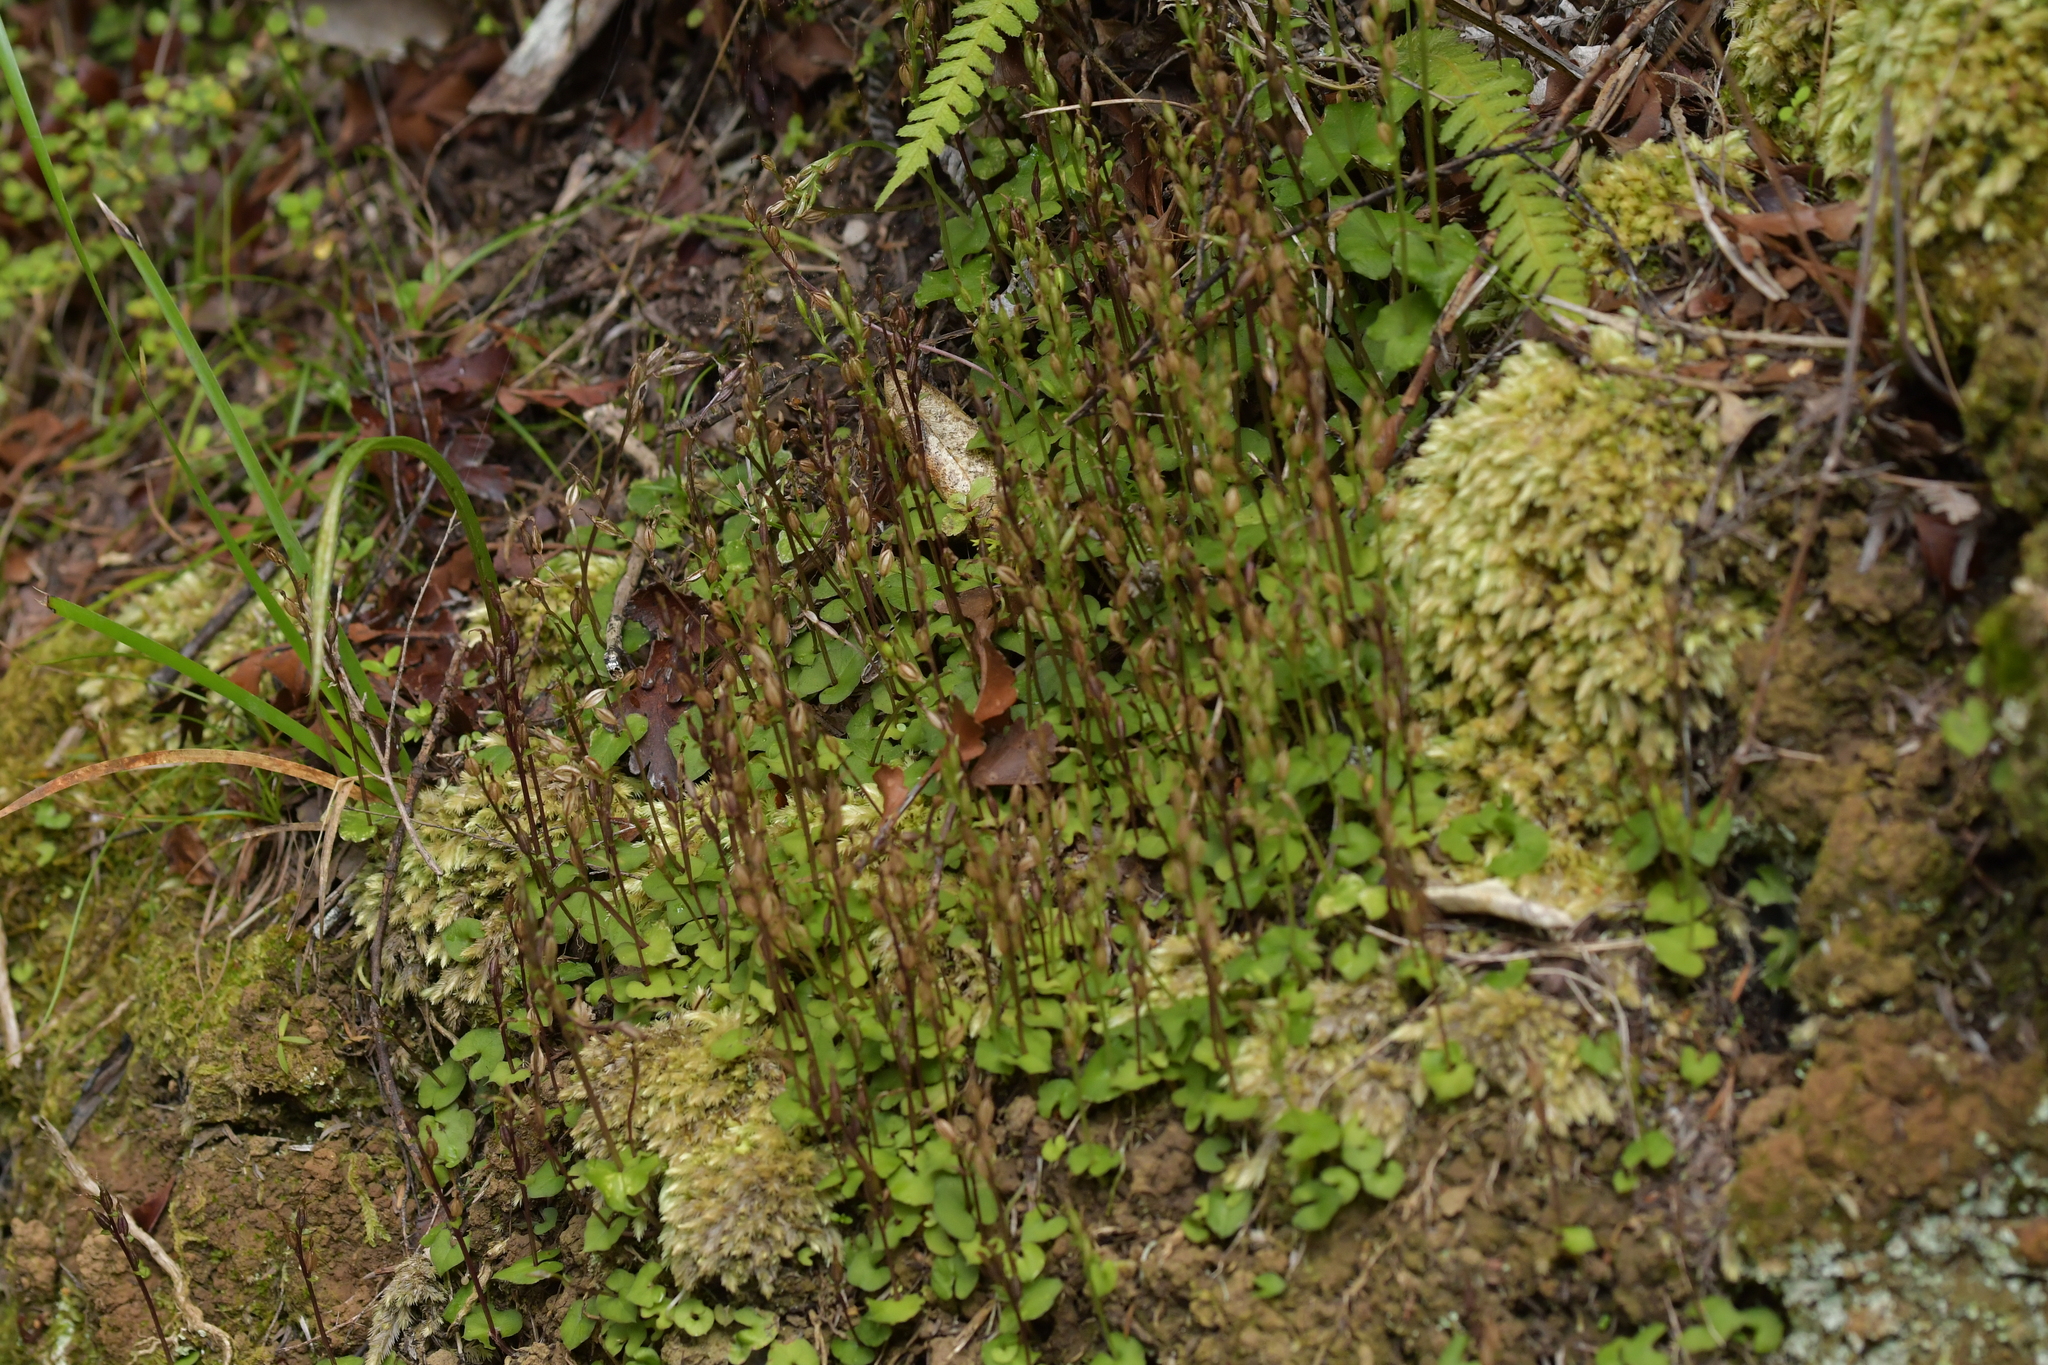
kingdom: Plantae
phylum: Tracheophyta
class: Liliopsida
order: Asparagales
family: Orchidaceae
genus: Acianthus
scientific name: Acianthus sinclairii
